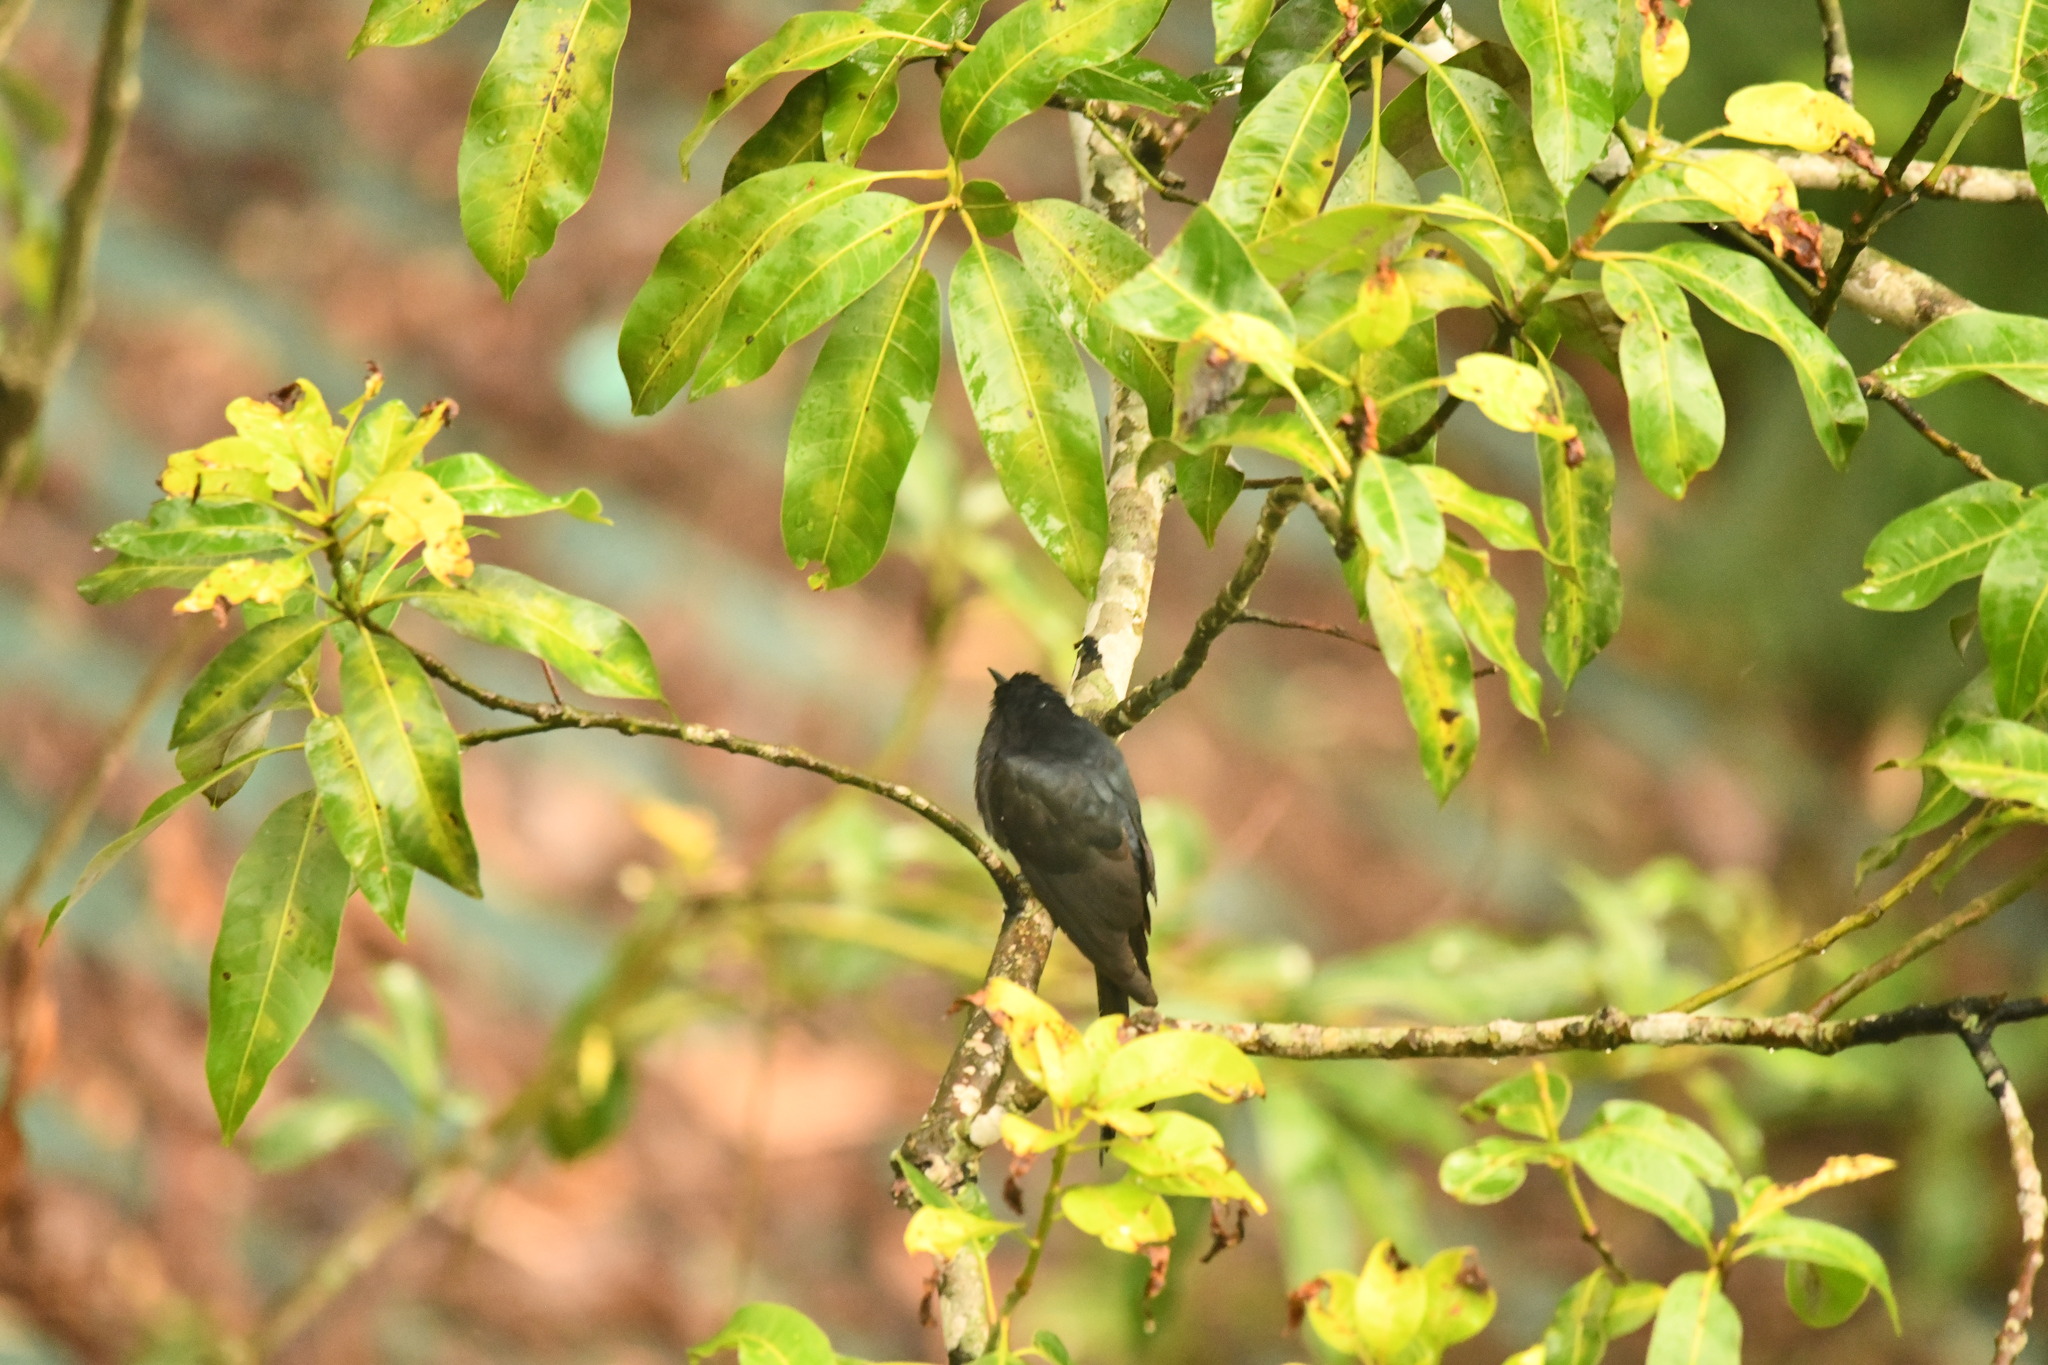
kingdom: Animalia
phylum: Chordata
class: Aves
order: Cuculiformes
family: Cuculidae
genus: Surniculus
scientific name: Surniculus lugubris
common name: Square-tailed drongo-cuckoo
